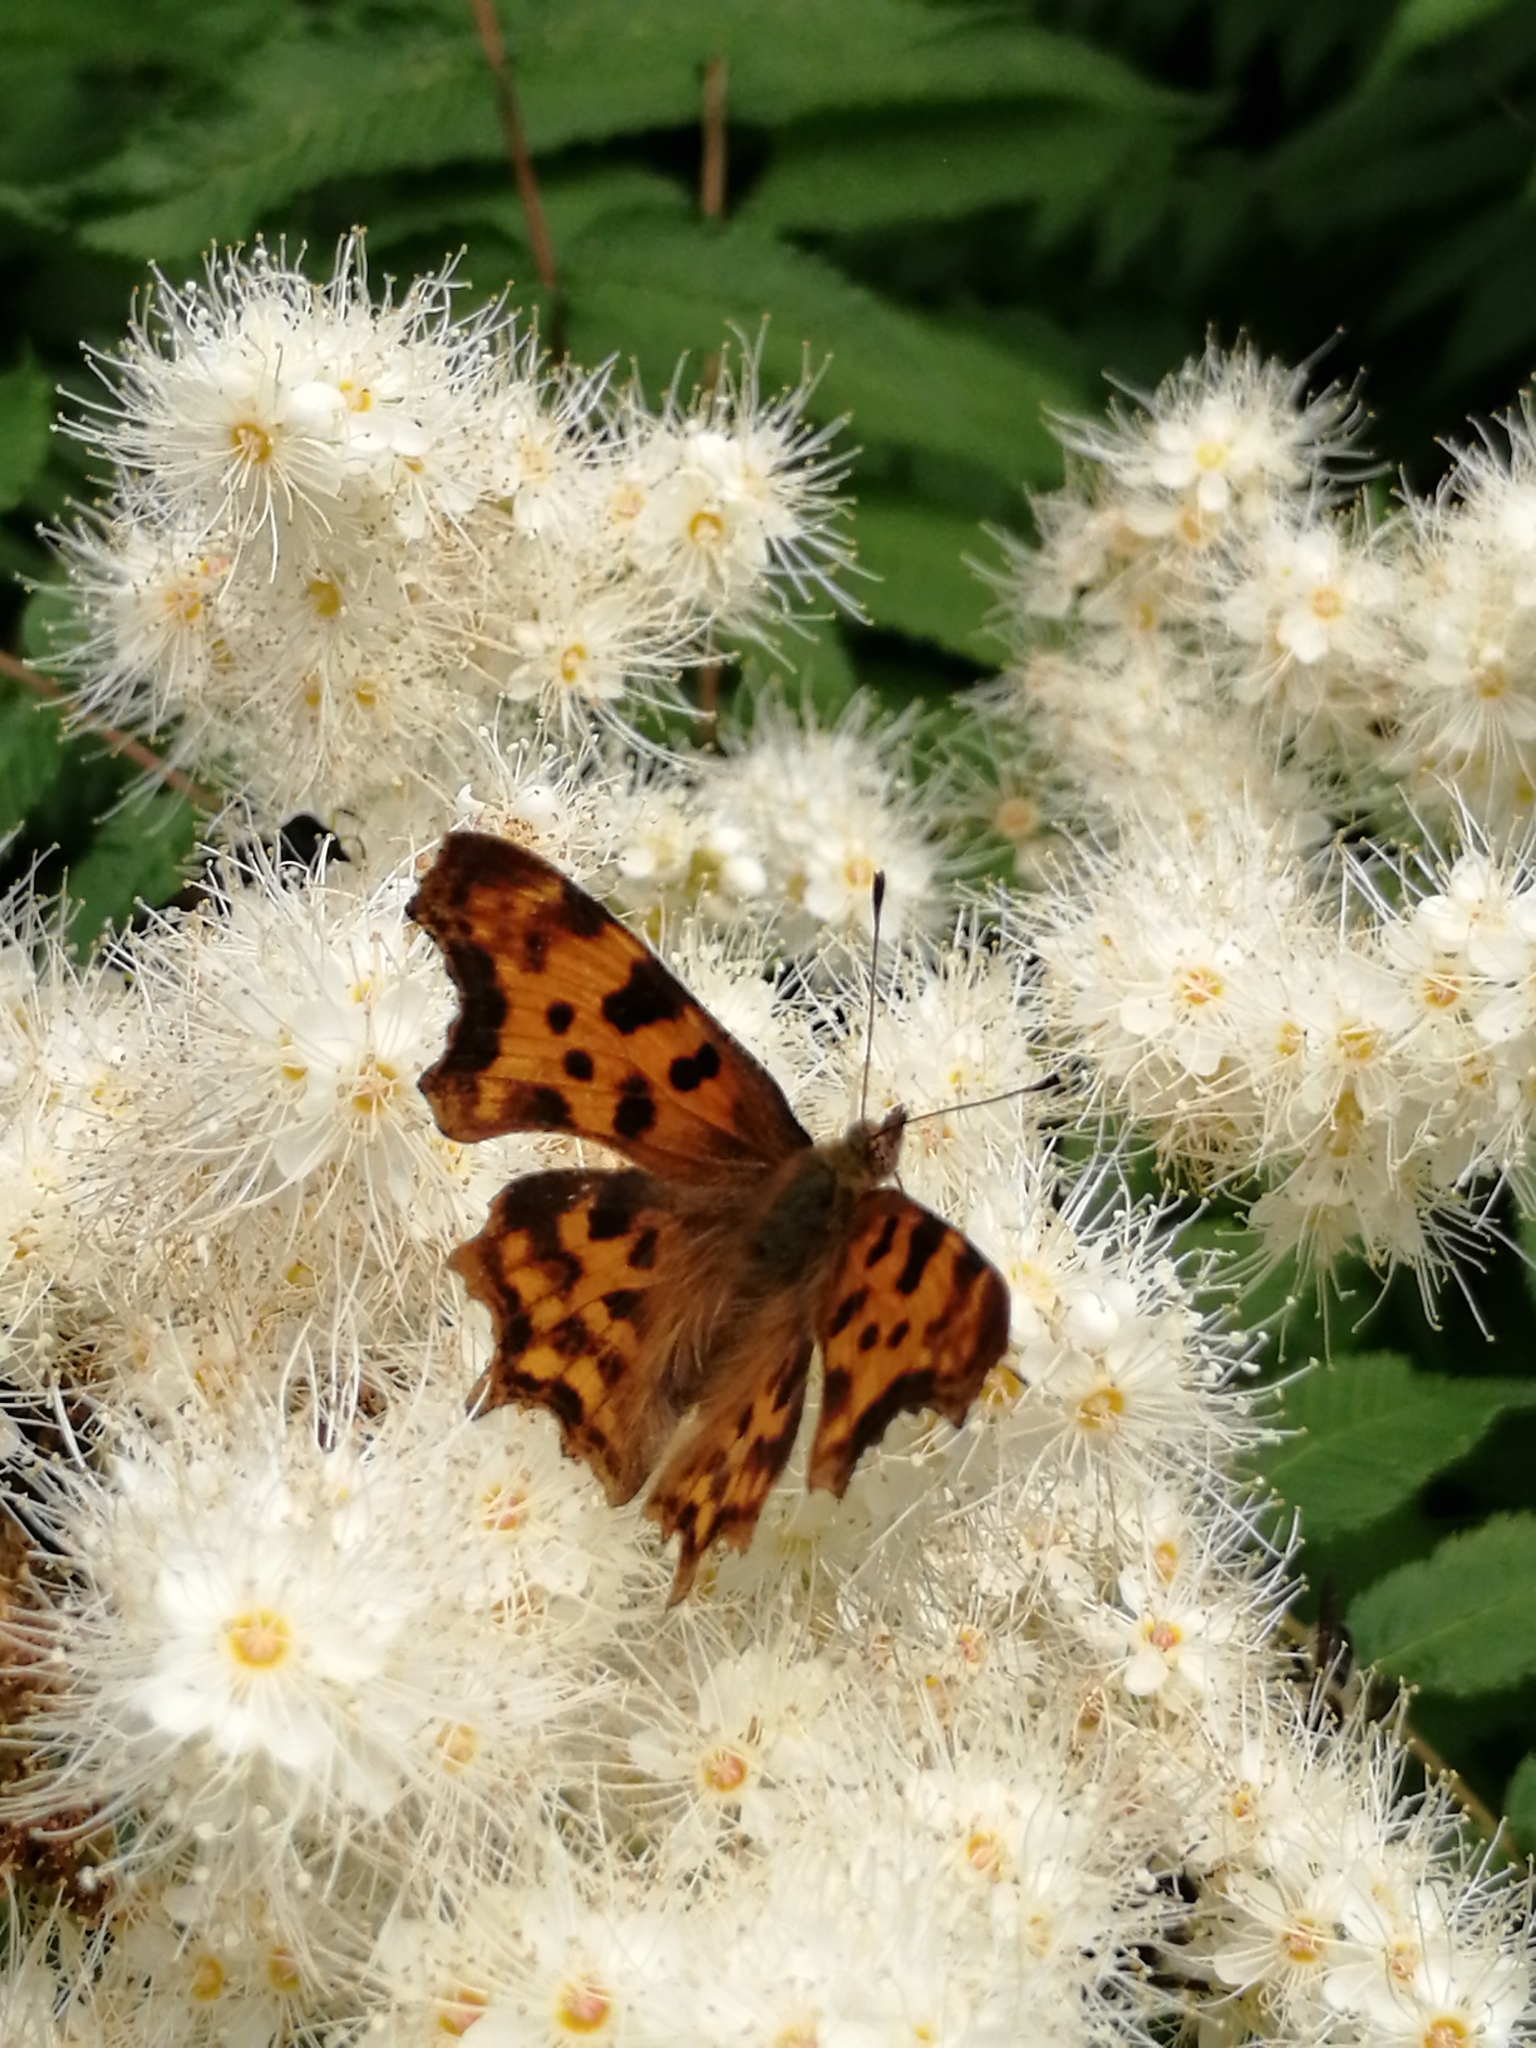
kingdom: Animalia
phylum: Arthropoda
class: Insecta
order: Lepidoptera
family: Nymphalidae
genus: Polygonia
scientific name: Polygonia c-album
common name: Comma
